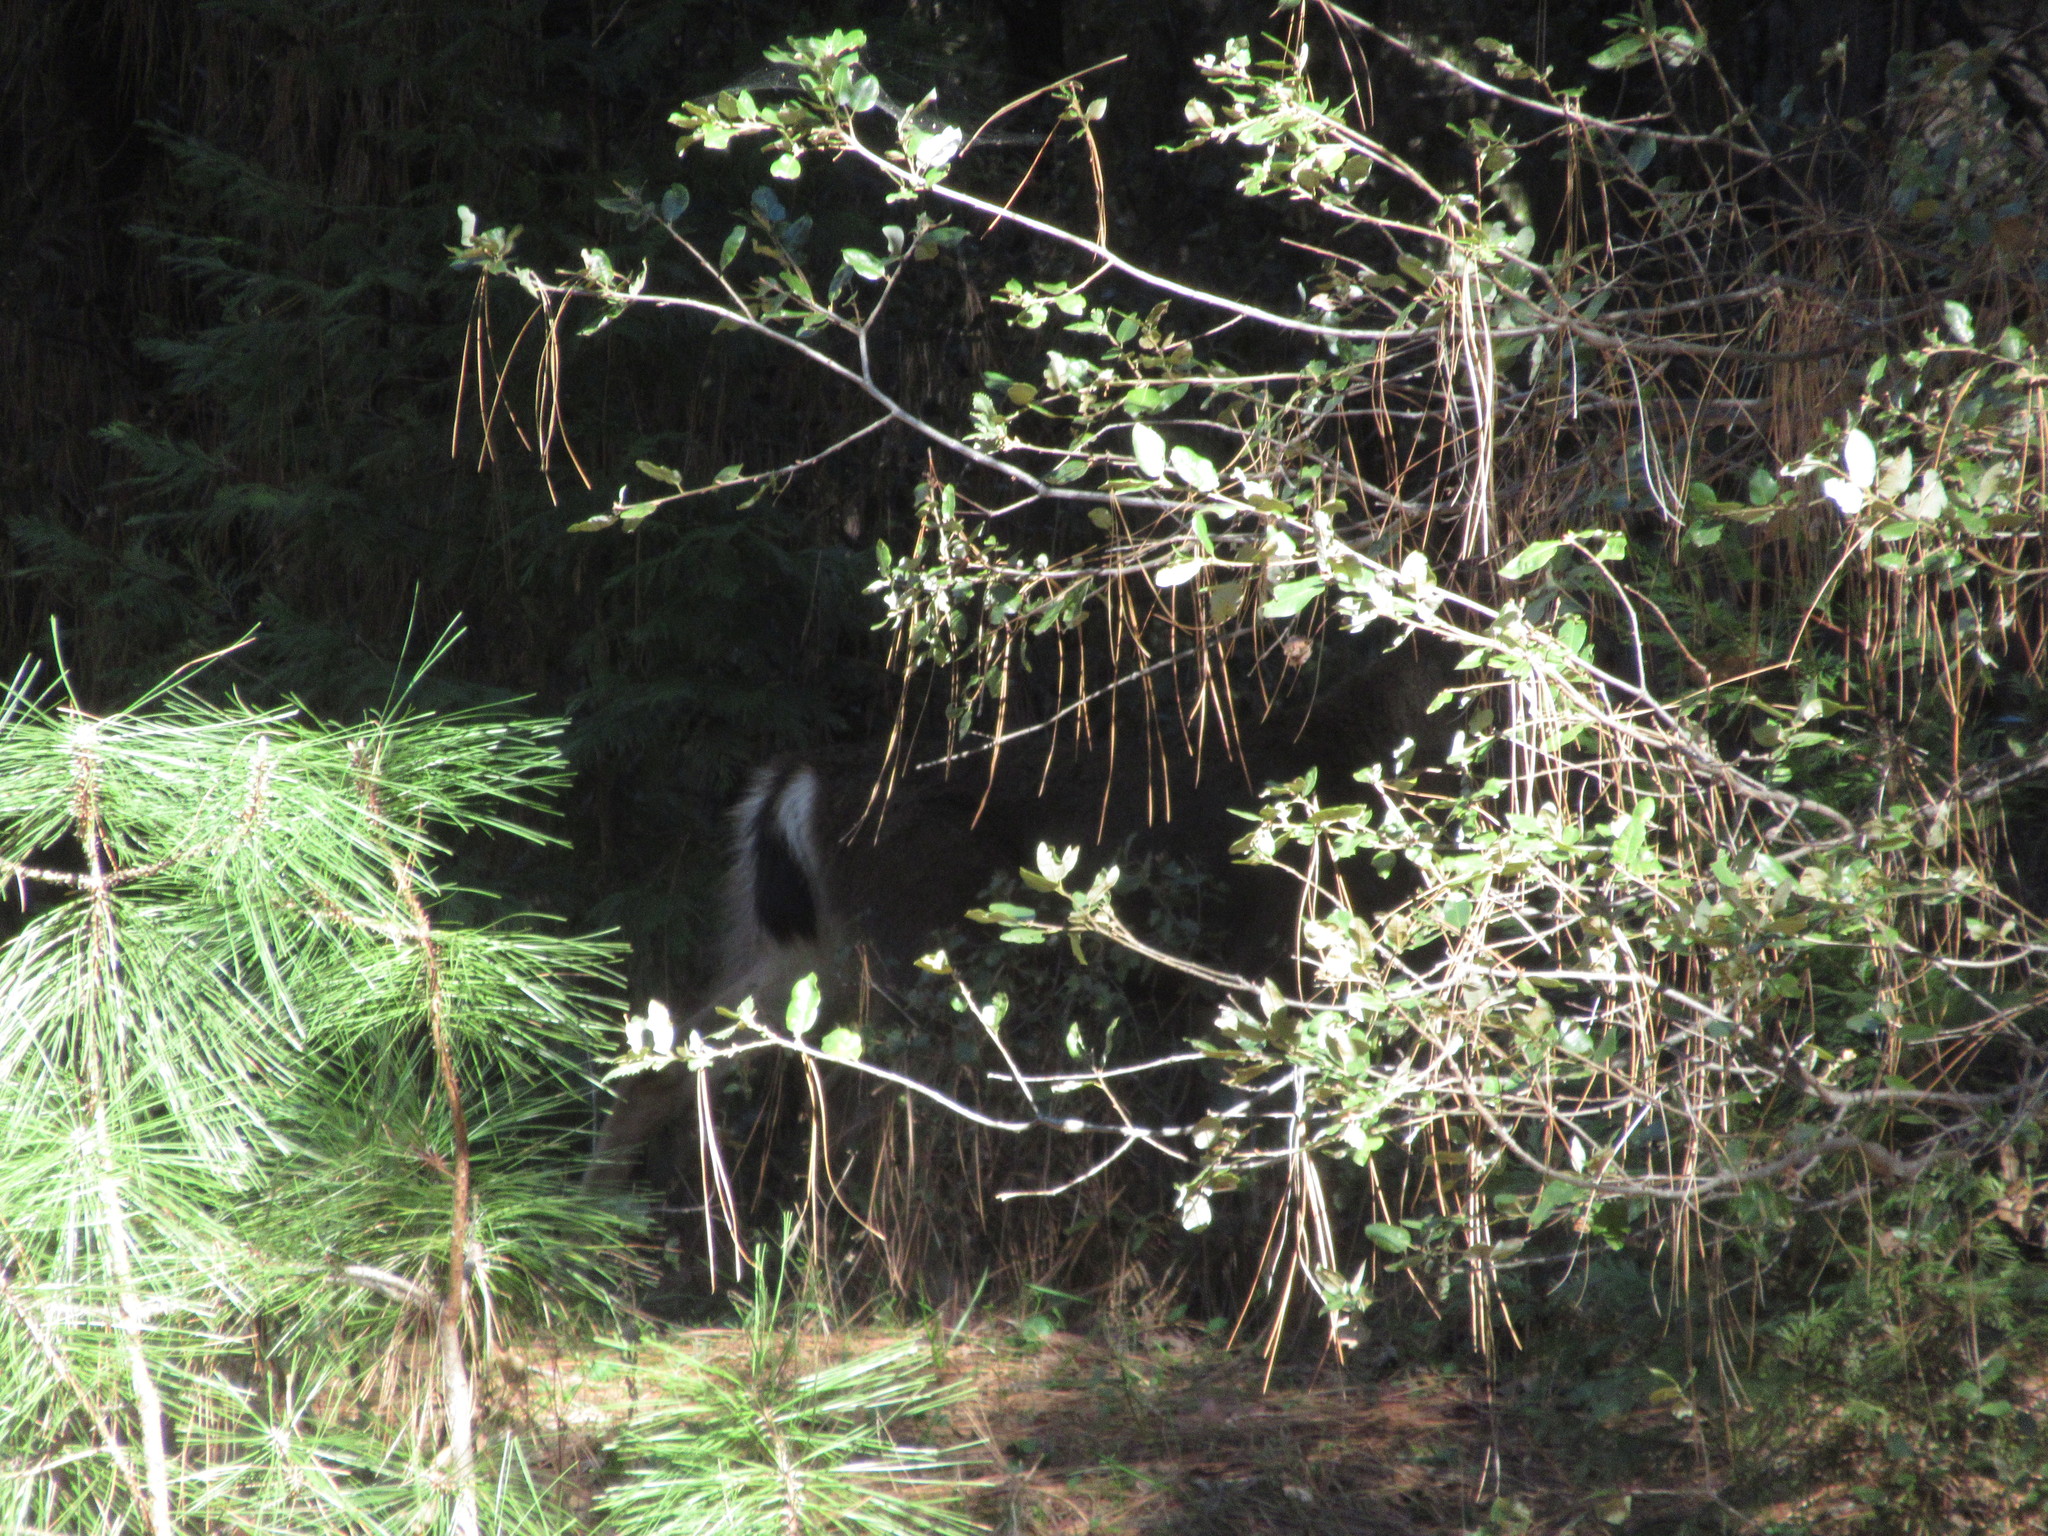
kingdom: Animalia
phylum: Chordata
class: Mammalia
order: Artiodactyla
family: Cervidae
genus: Odocoileus
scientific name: Odocoileus hemionus
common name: Mule deer
